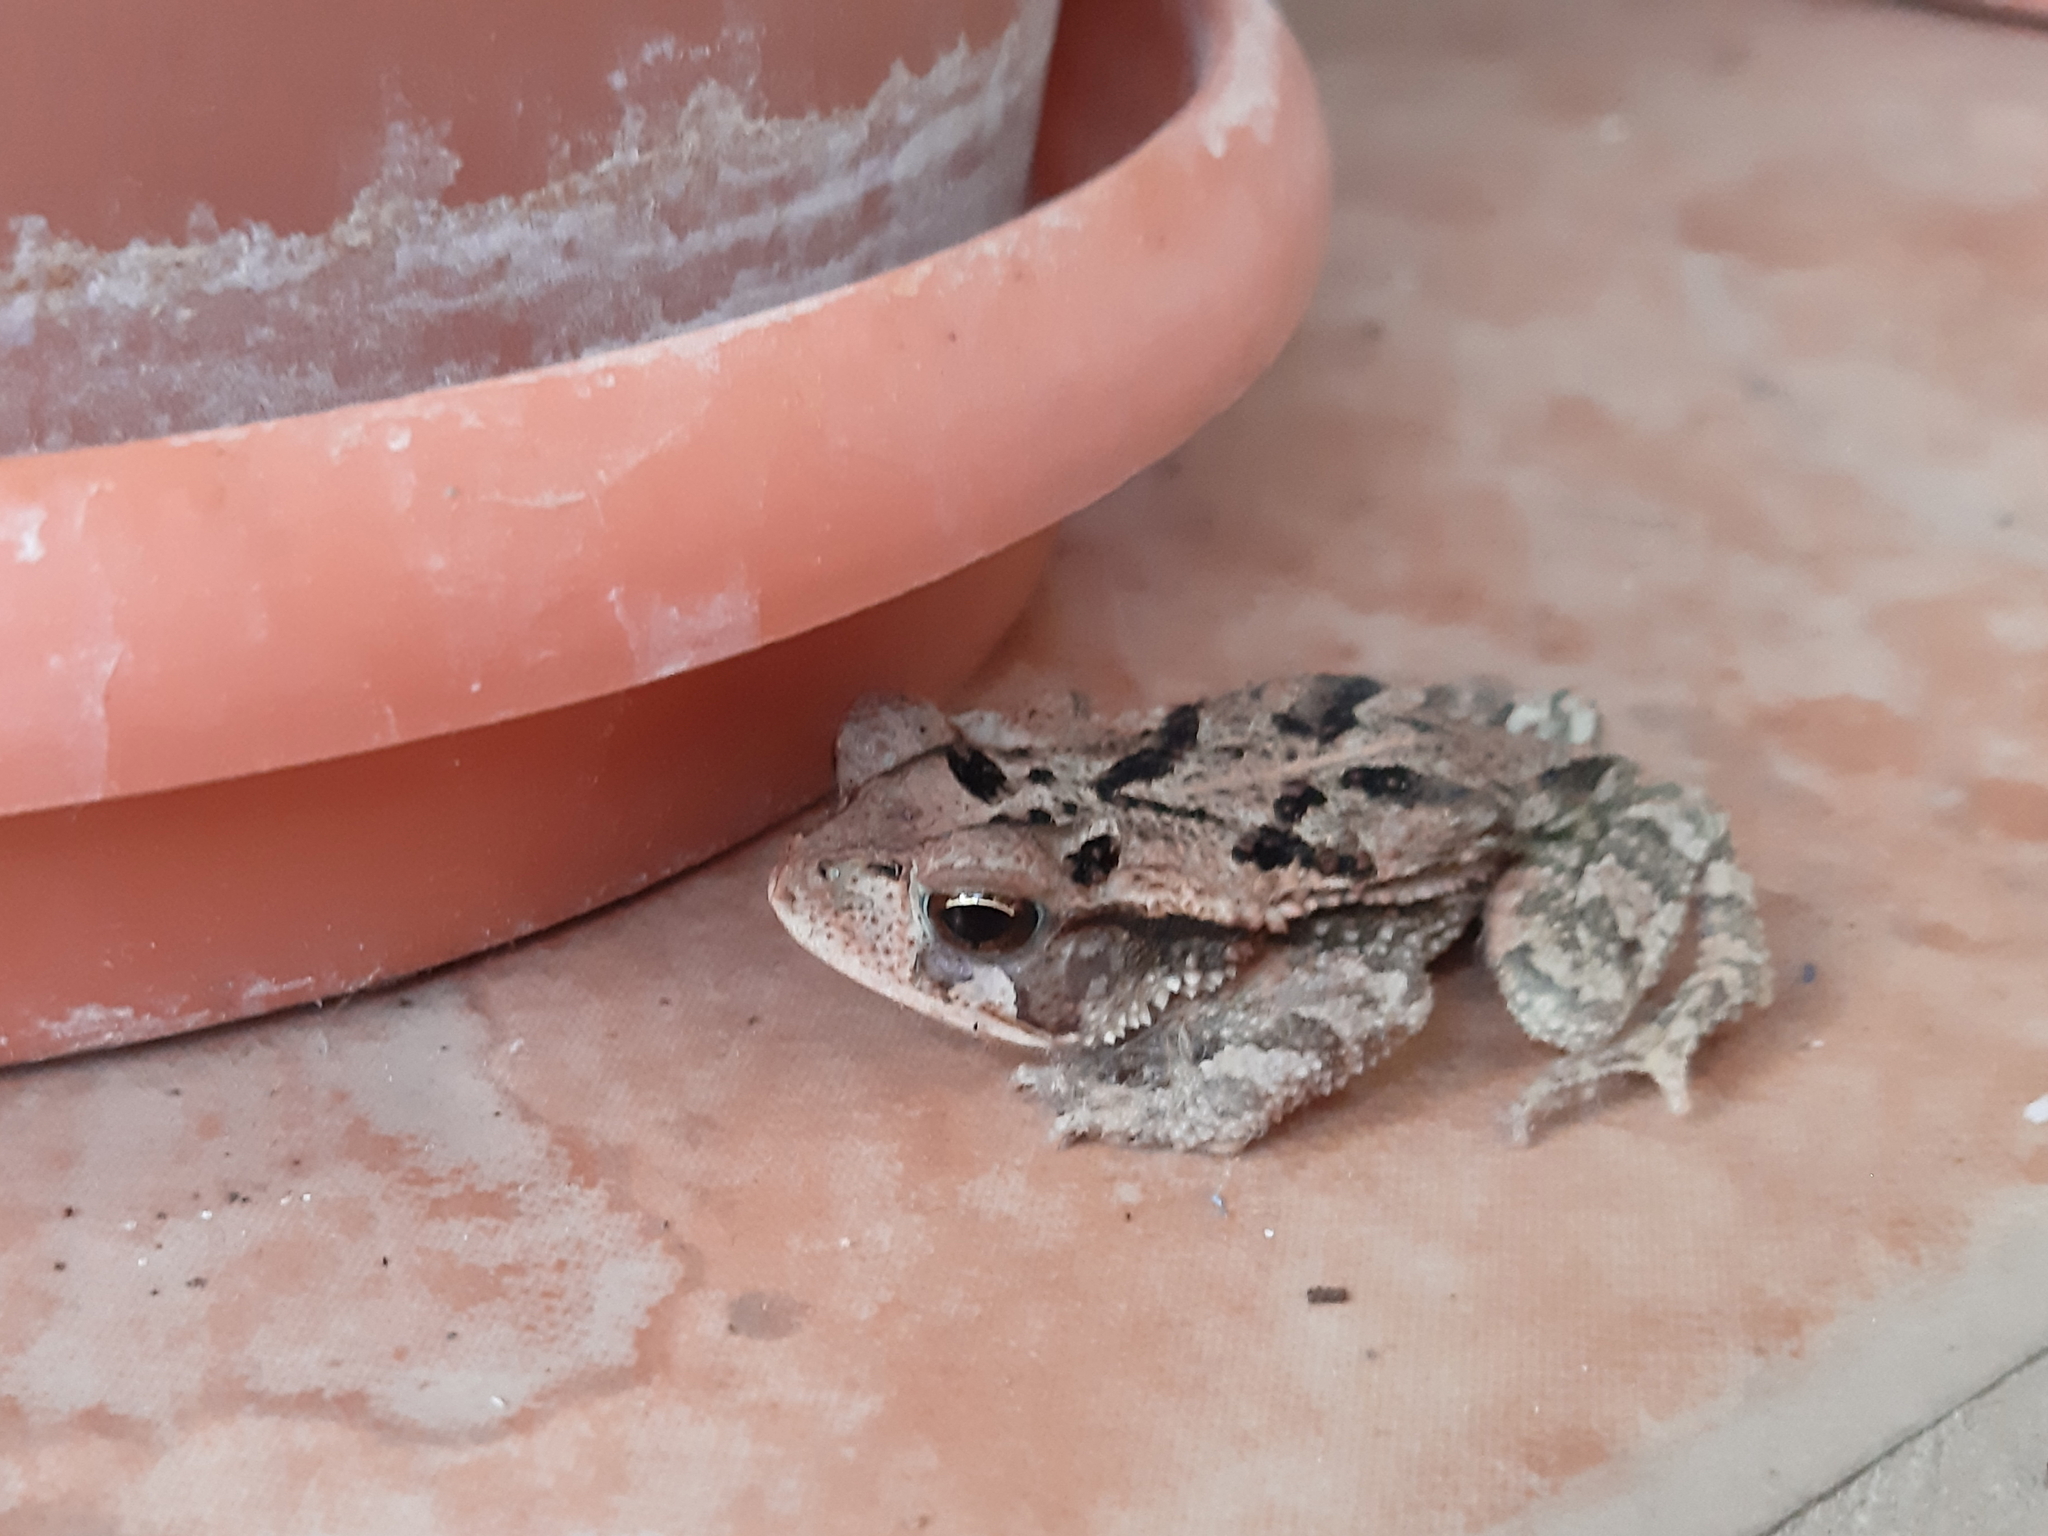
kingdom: Animalia
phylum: Chordata
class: Amphibia
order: Anura
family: Bufonidae
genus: Incilius
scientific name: Incilius valliceps
